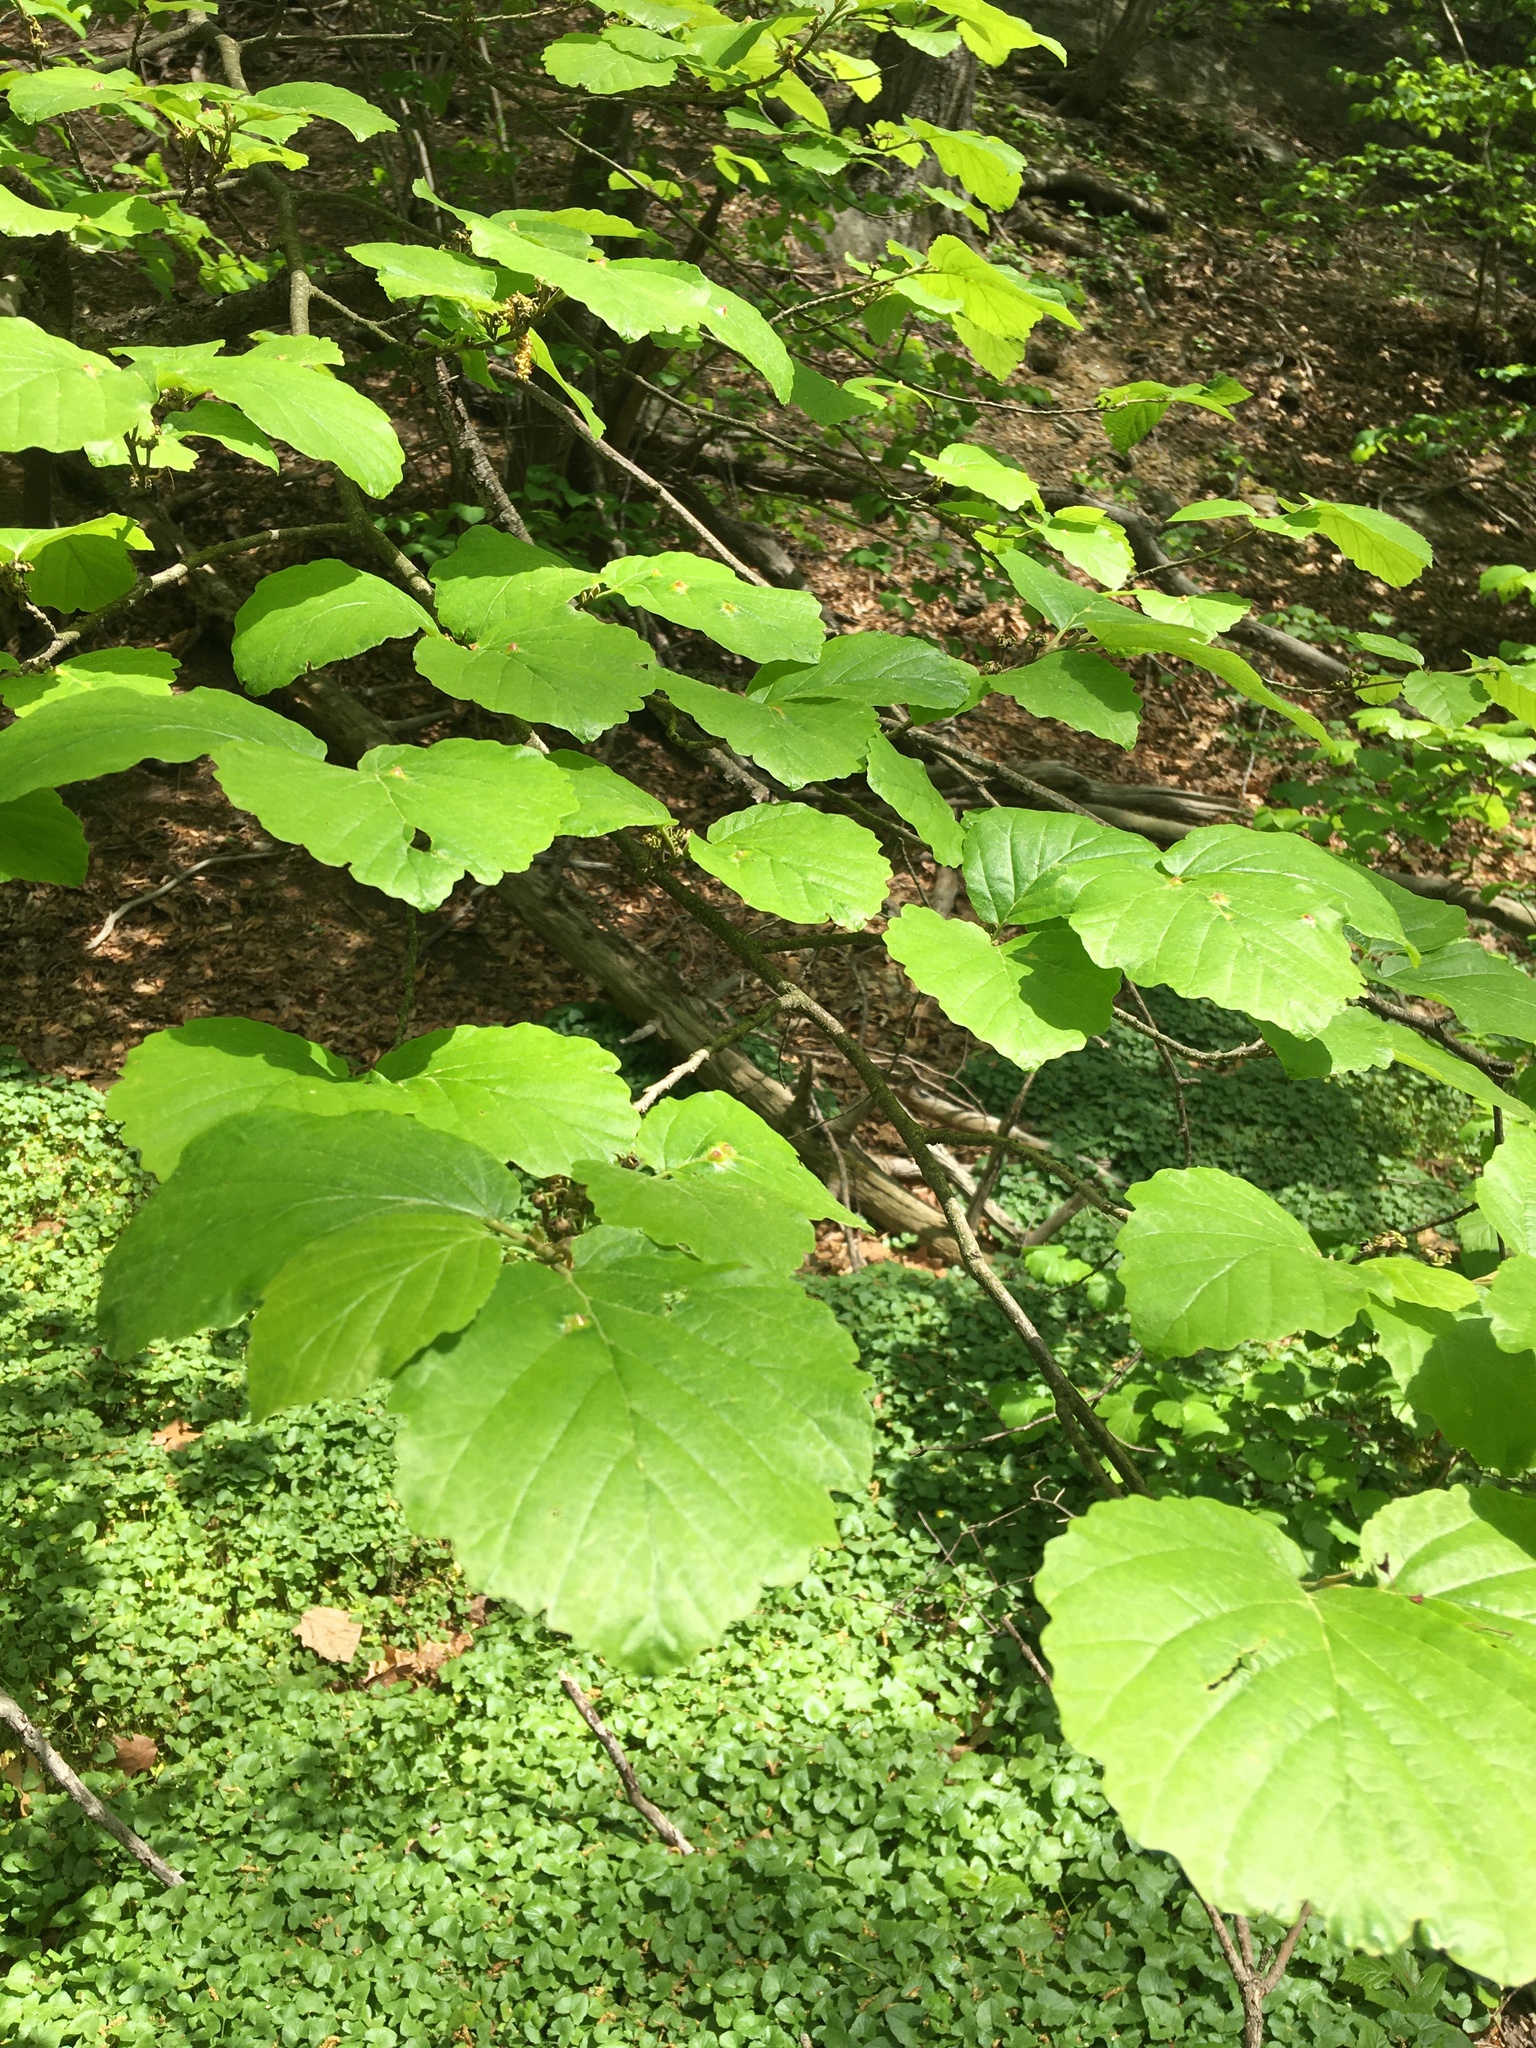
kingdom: Plantae
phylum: Tracheophyta
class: Magnoliopsida
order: Saxifragales
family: Hamamelidaceae
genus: Hamamelis
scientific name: Hamamelis virginiana
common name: Witch-hazel
